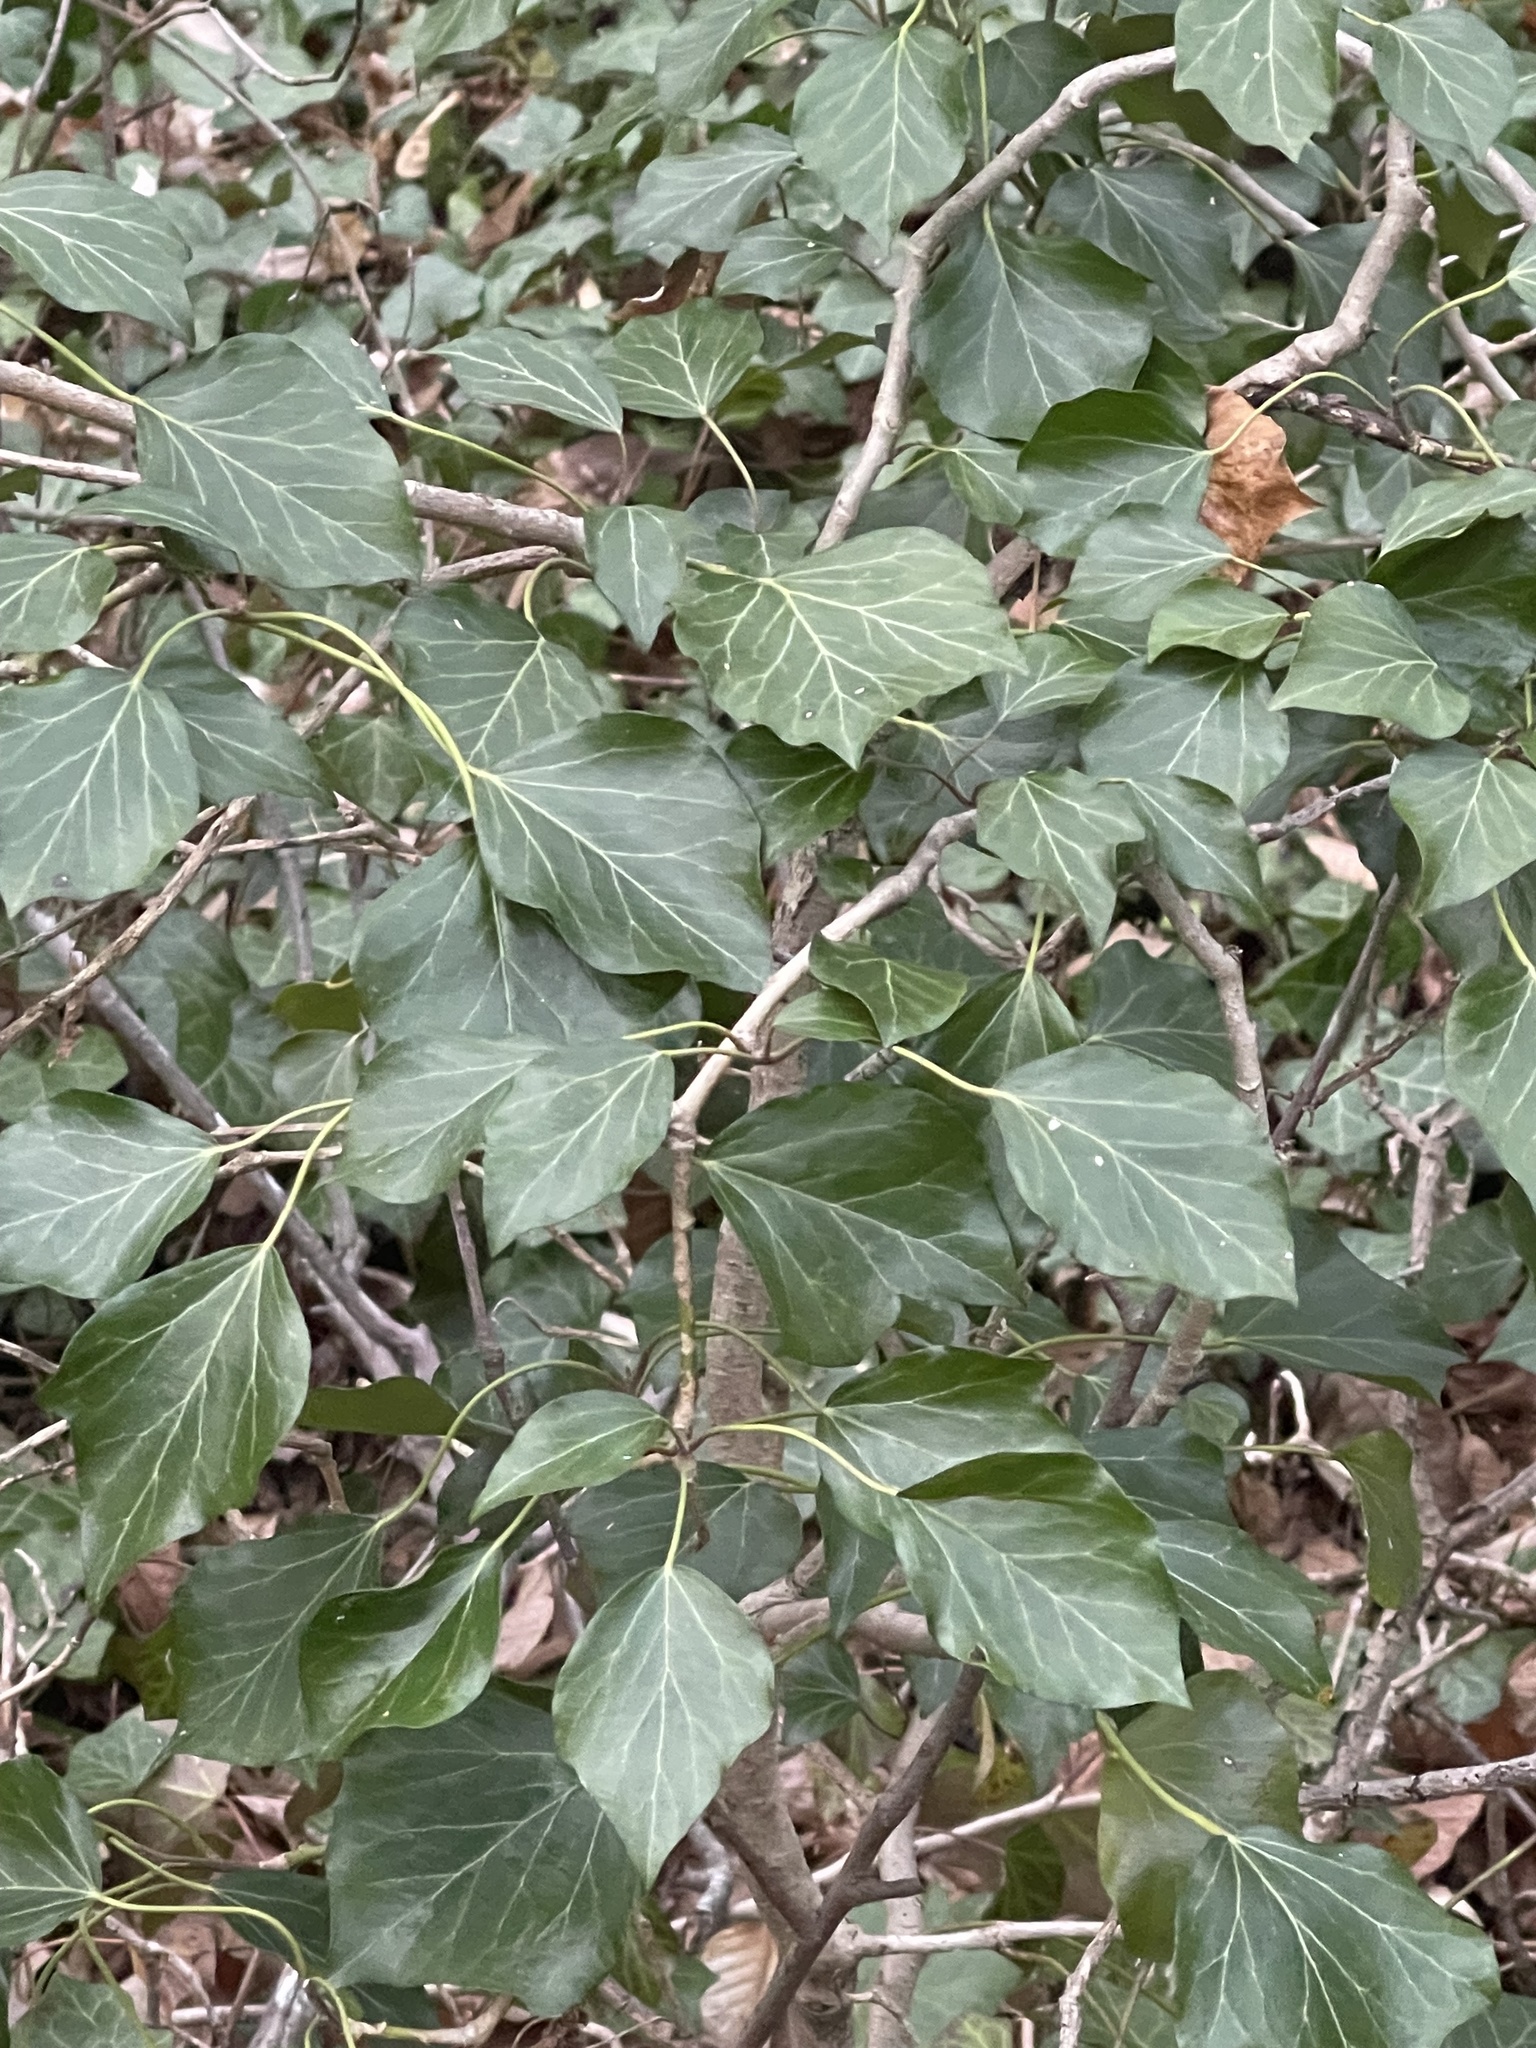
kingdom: Plantae
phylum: Tracheophyta
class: Magnoliopsida
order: Apiales
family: Araliaceae
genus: Hedera
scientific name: Hedera helix
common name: Ivy
